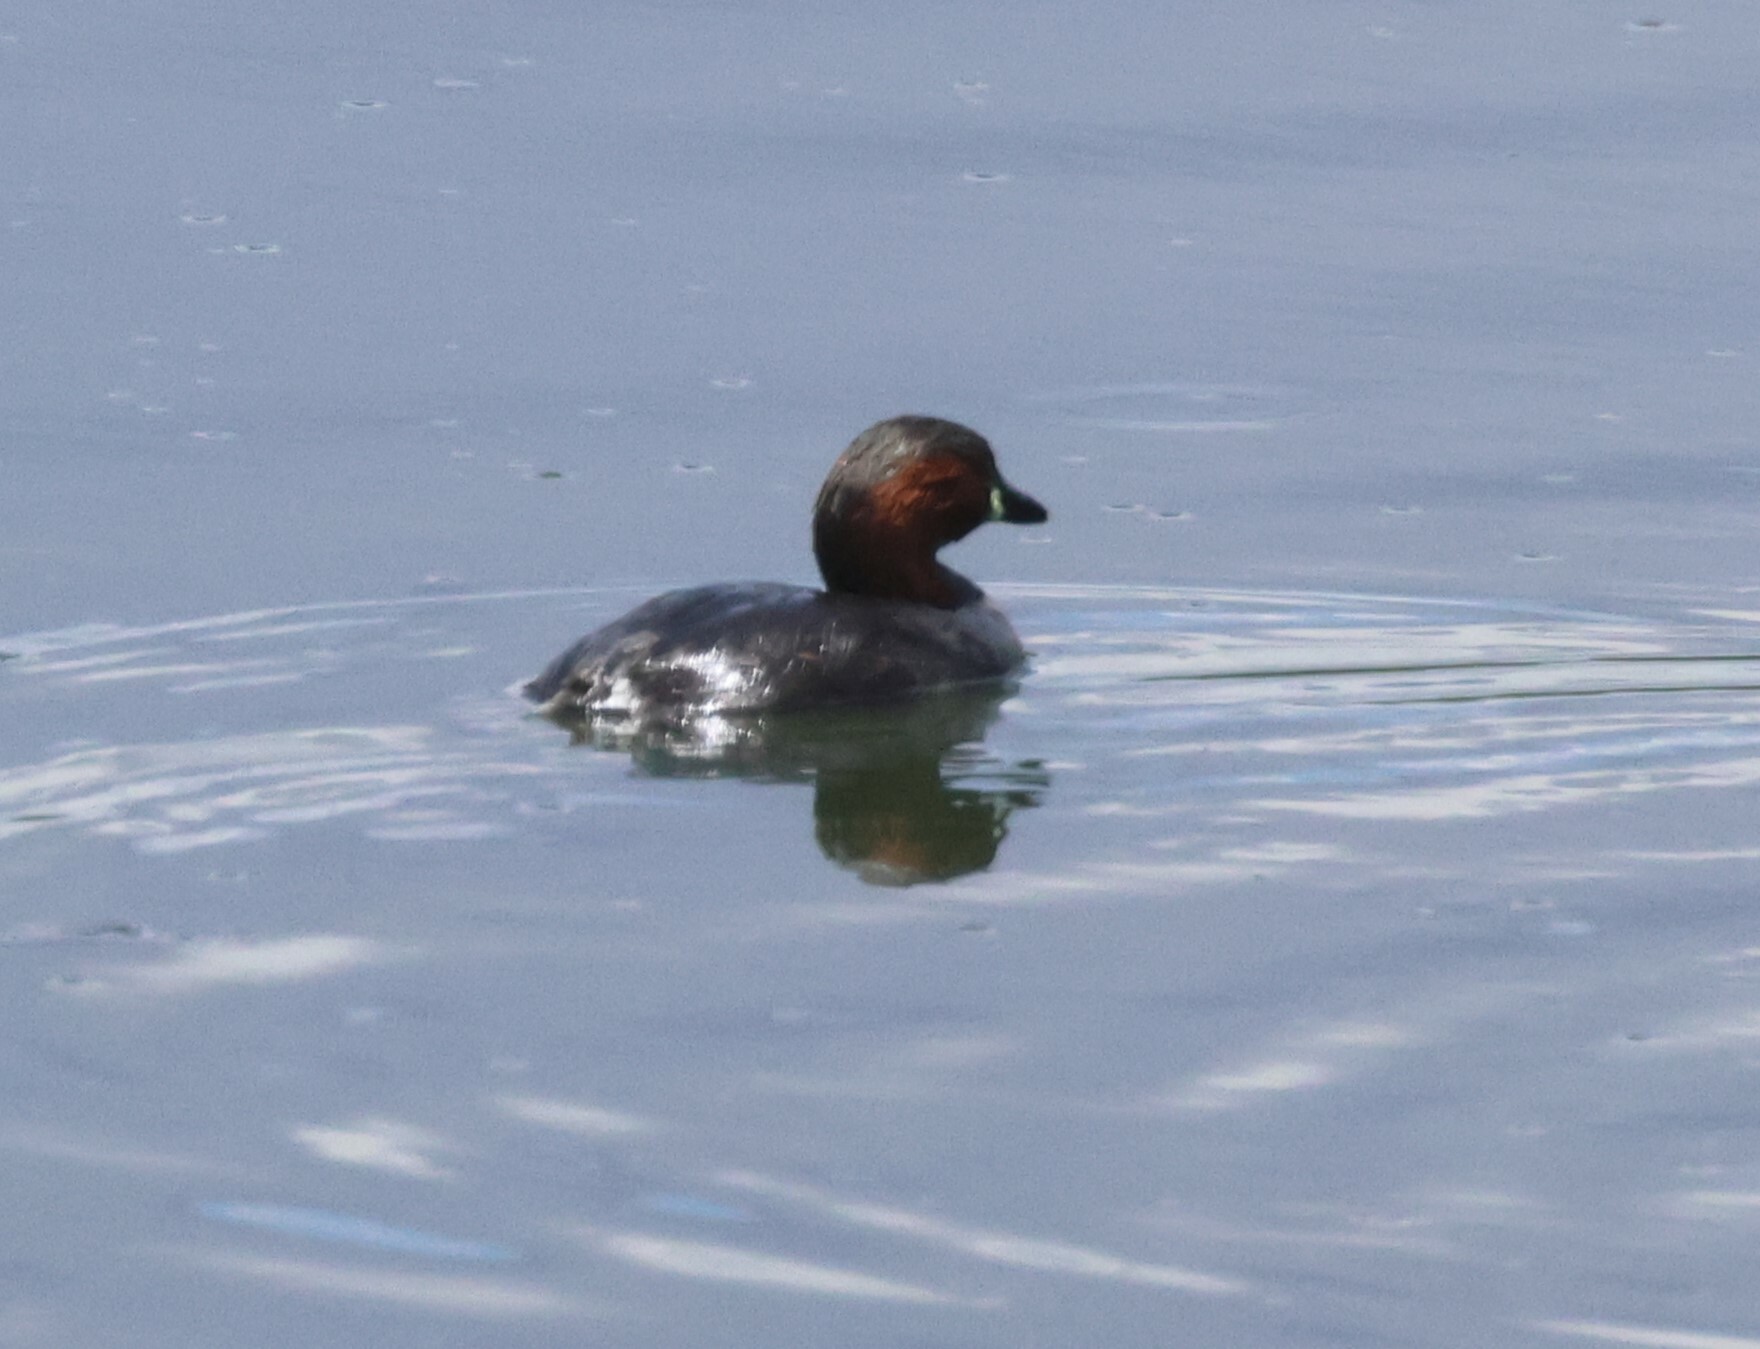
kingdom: Animalia
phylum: Chordata
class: Aves
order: Podicipediformes
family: Podicipedidae
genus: Tachybaptus
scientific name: Tachybaptus ruficollis
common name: Little grebe
